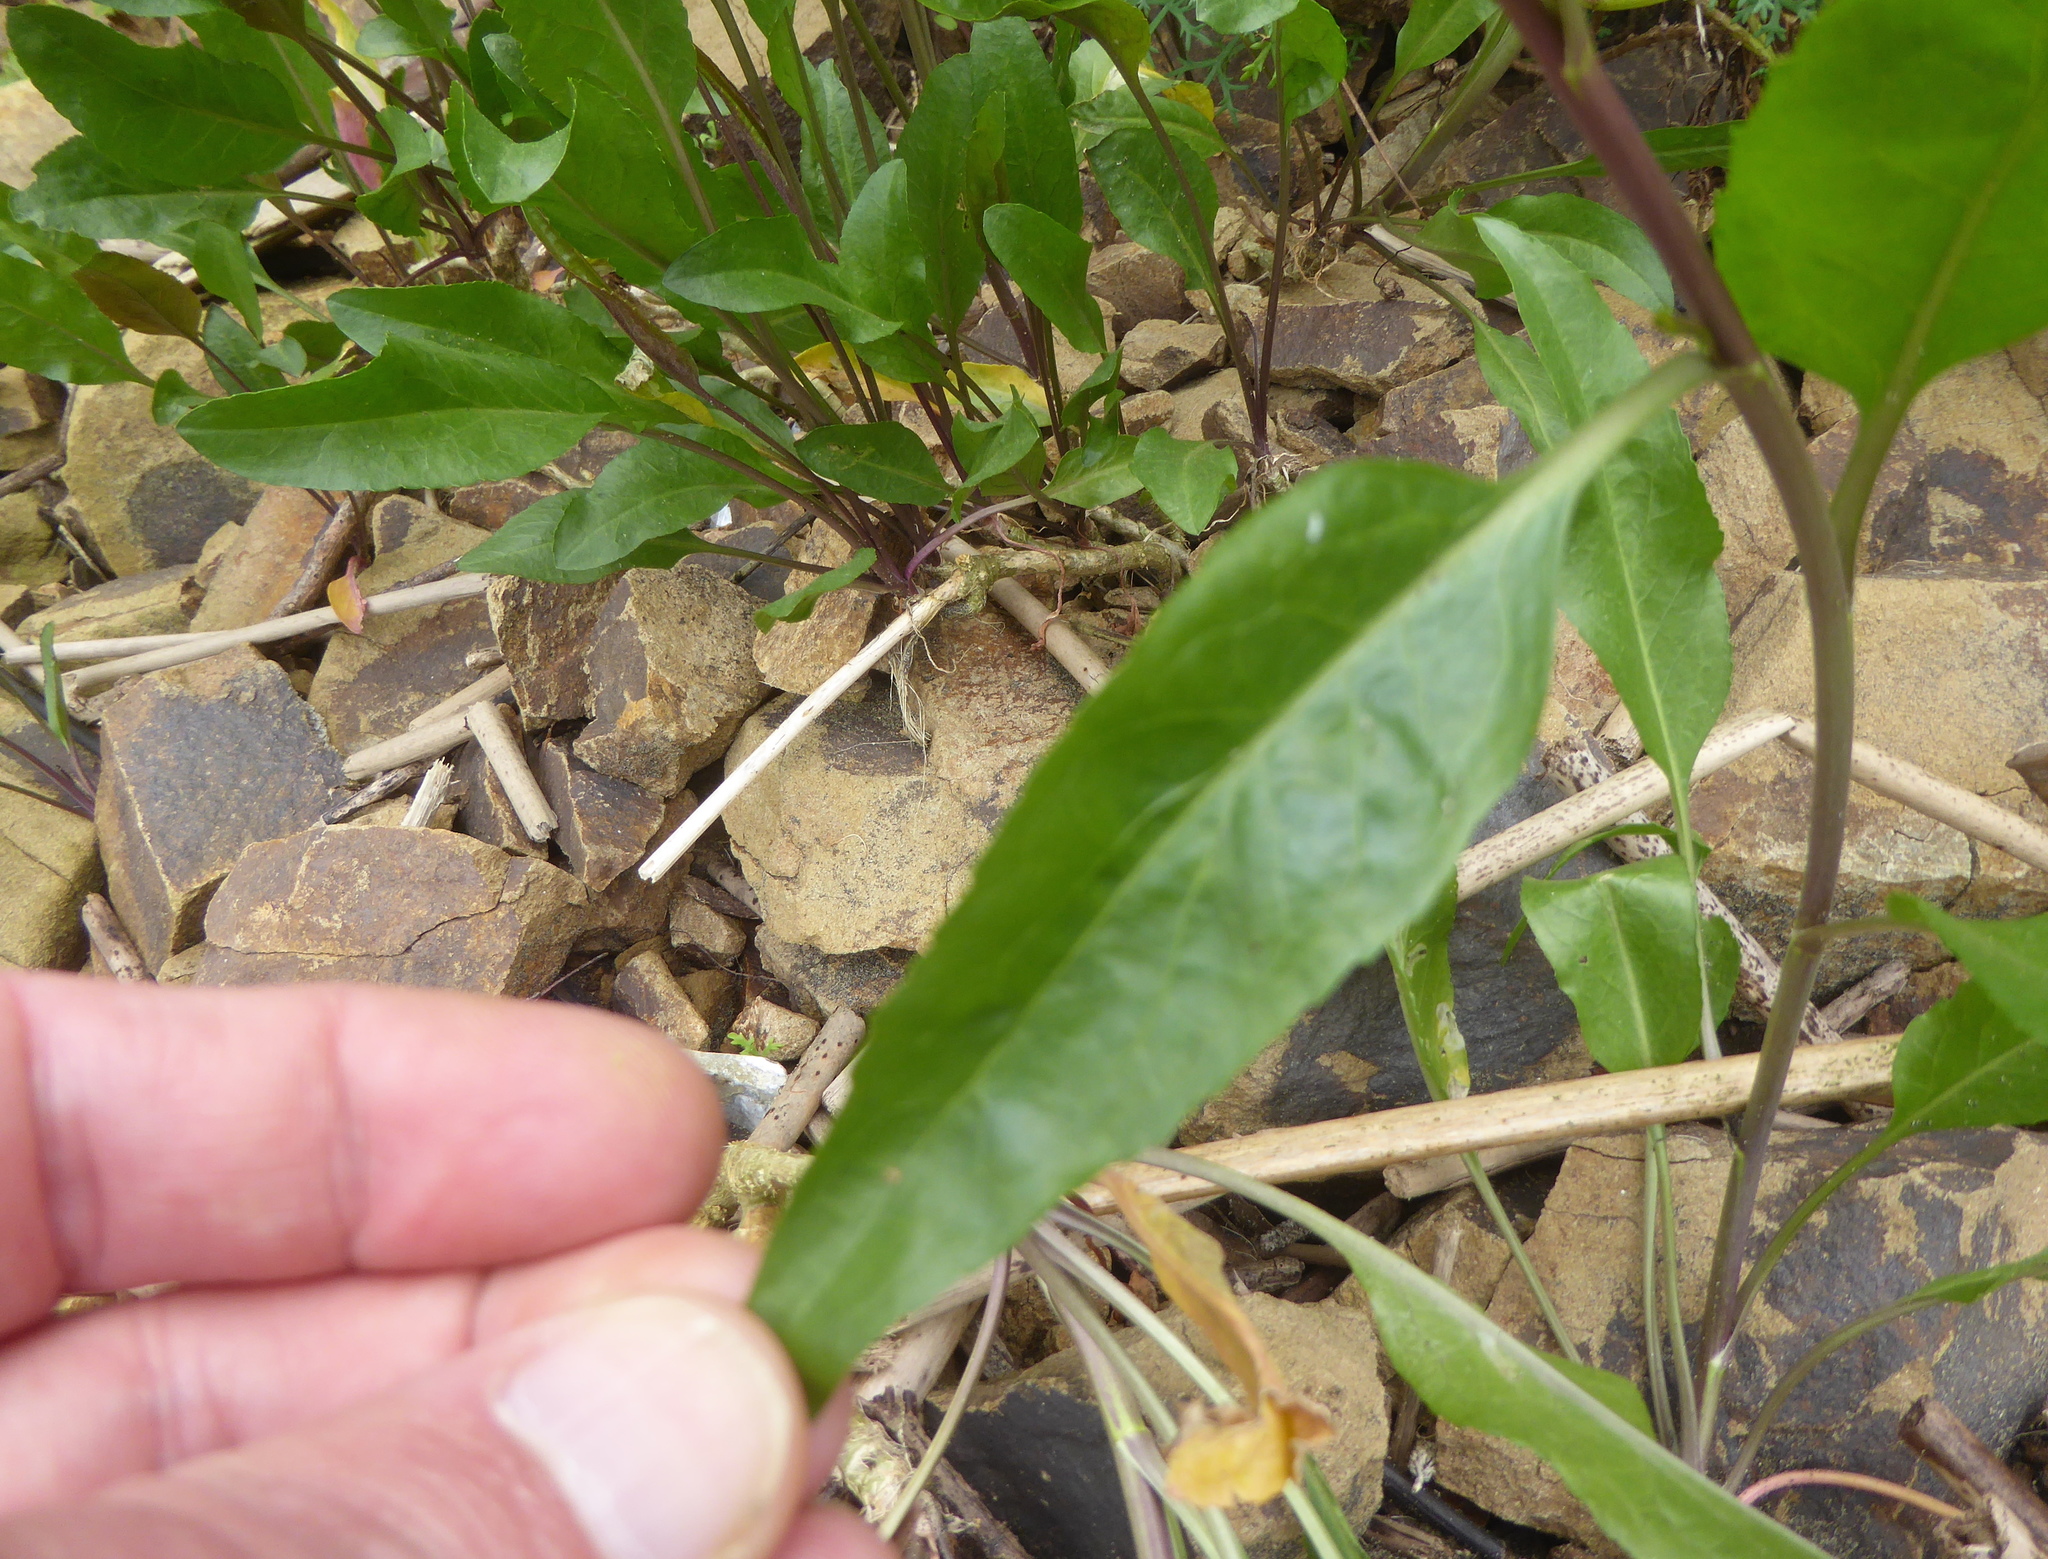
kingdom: Plantae
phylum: Tracheophyta
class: Magnoliopsida
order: Brassicales
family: Brassicaceae
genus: Lepidium
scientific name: Lepidium latifolium
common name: Dittander
